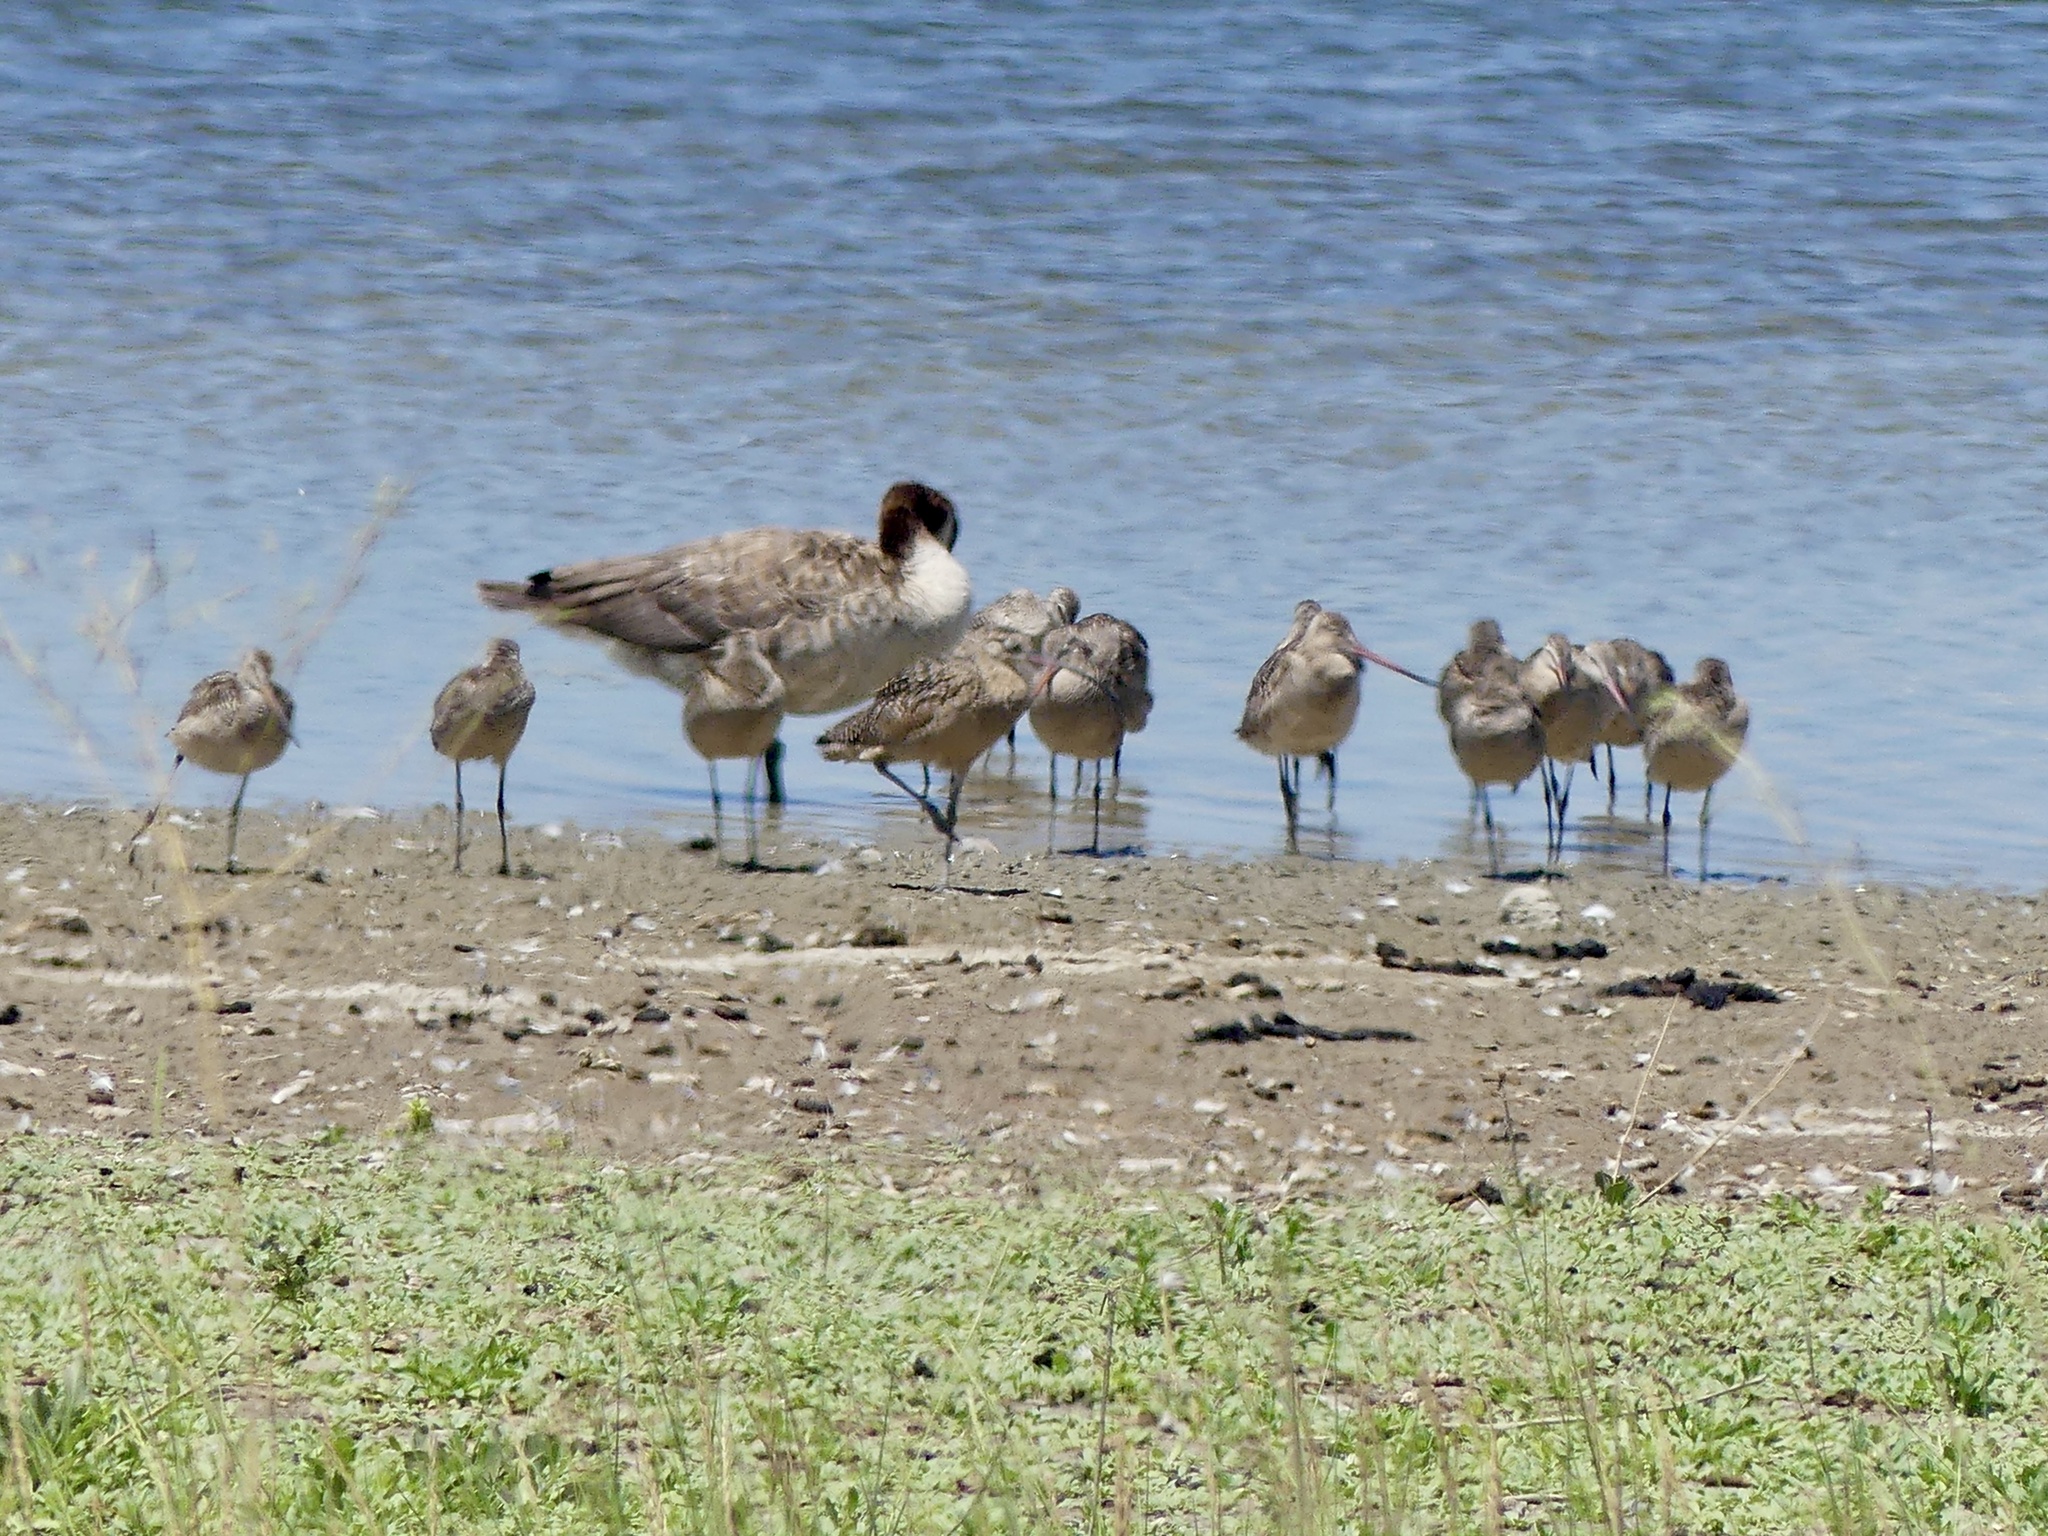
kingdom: Animalia
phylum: Chordata
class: Aves
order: Charadriiformes
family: Scolopacidae
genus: Limosa
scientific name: Limosa fedoa
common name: Marbled godwit
